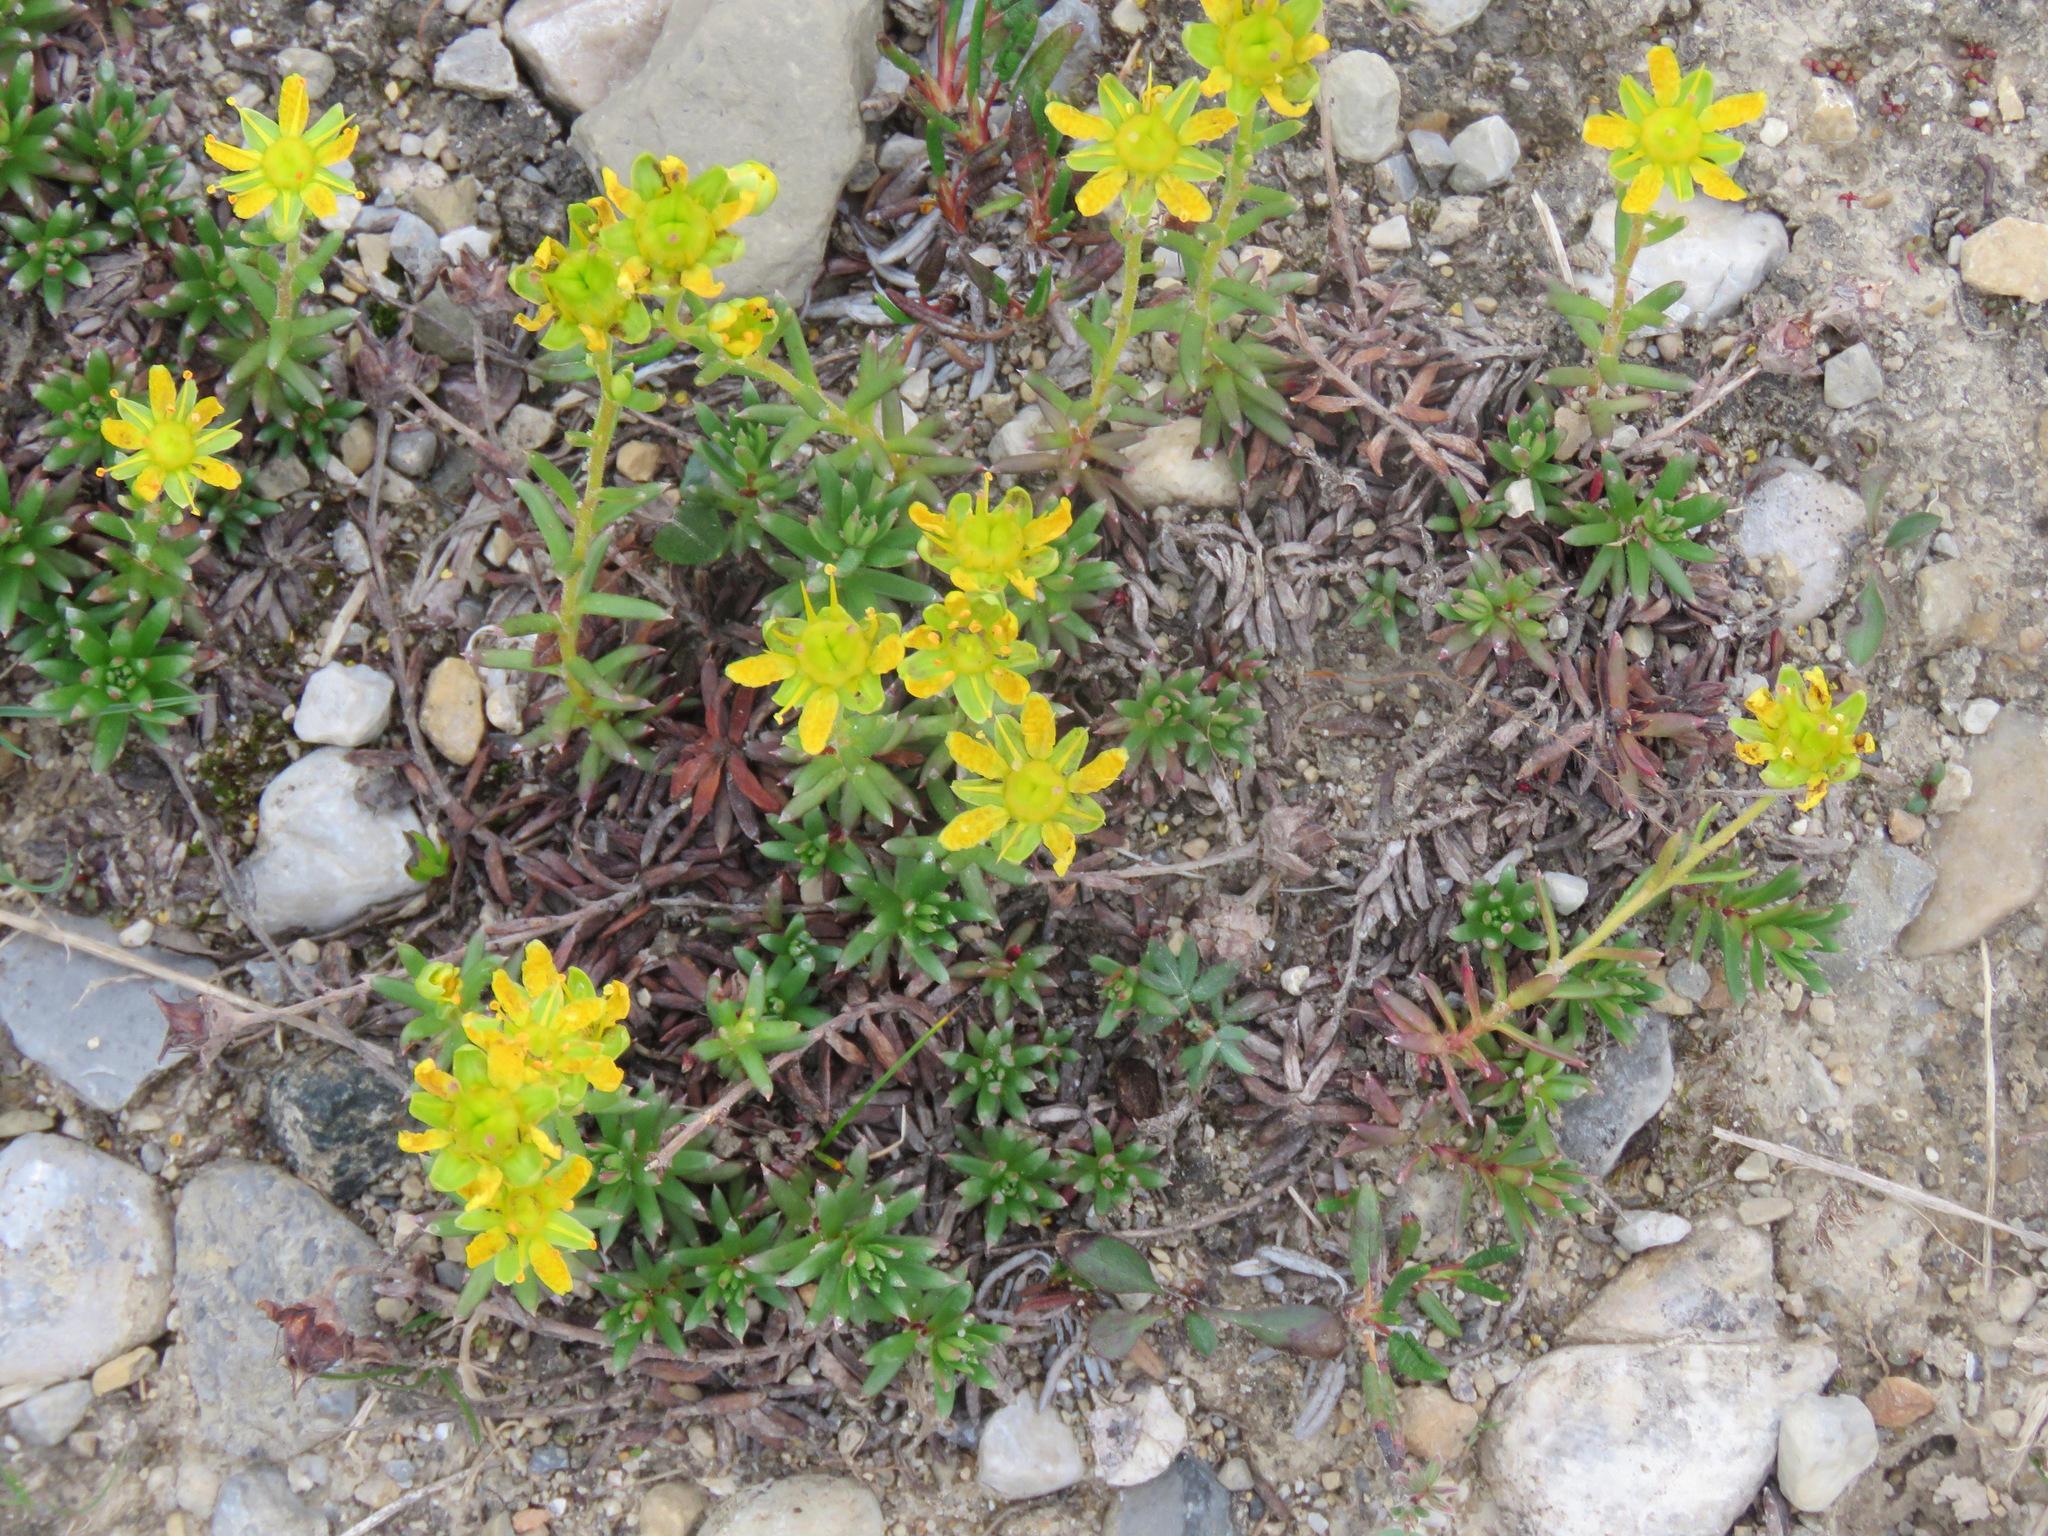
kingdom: Plantae
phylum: Tracheophyta
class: Magnoliopsida
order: Saxifragales
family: Saxifragaceae
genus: Saxifraga
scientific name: Saxifraga aizoides
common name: Yellow mountain saxifrage
